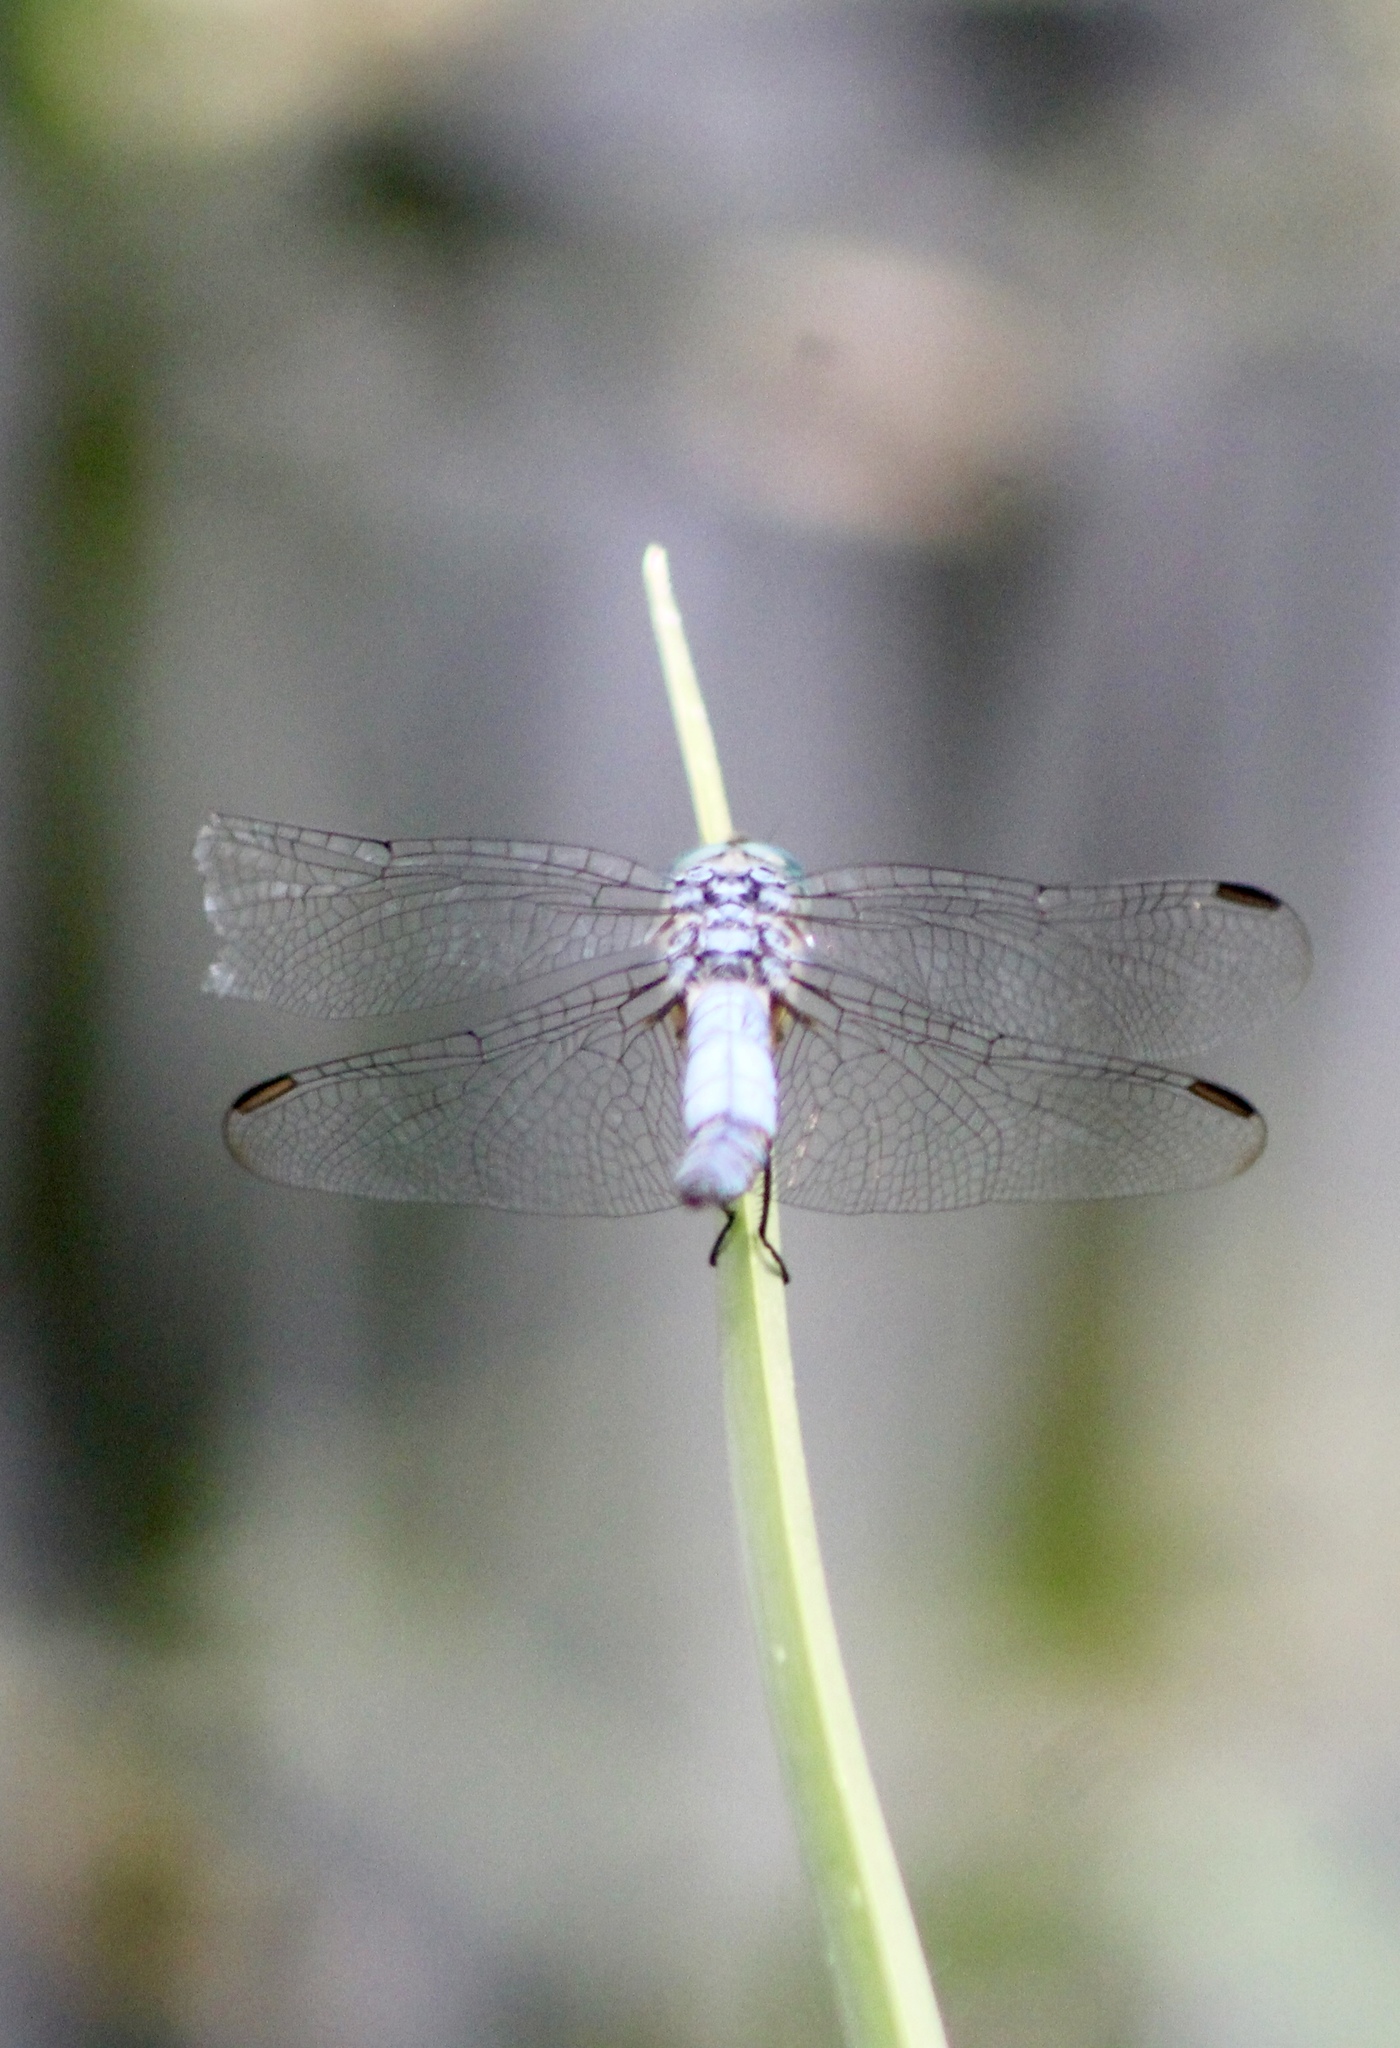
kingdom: Animalia
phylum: Arthropoda
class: Insecta
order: Odonata
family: Libellulidae
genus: Pachydiplax
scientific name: Pachydiplax longipennis
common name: Blue dasher
